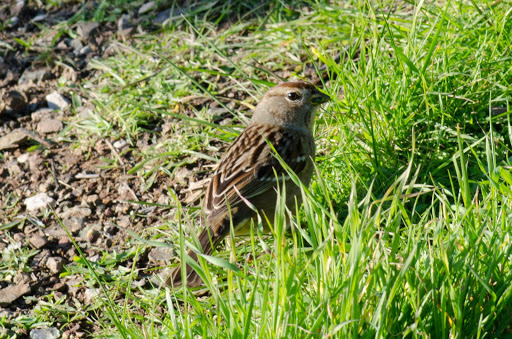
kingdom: Animalia
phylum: Chordata
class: Aves
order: Passeriformes
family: Passerellidae
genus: Zonotrichia
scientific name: Zonotrichia atricapilla
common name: Golden-crowned sparrow
